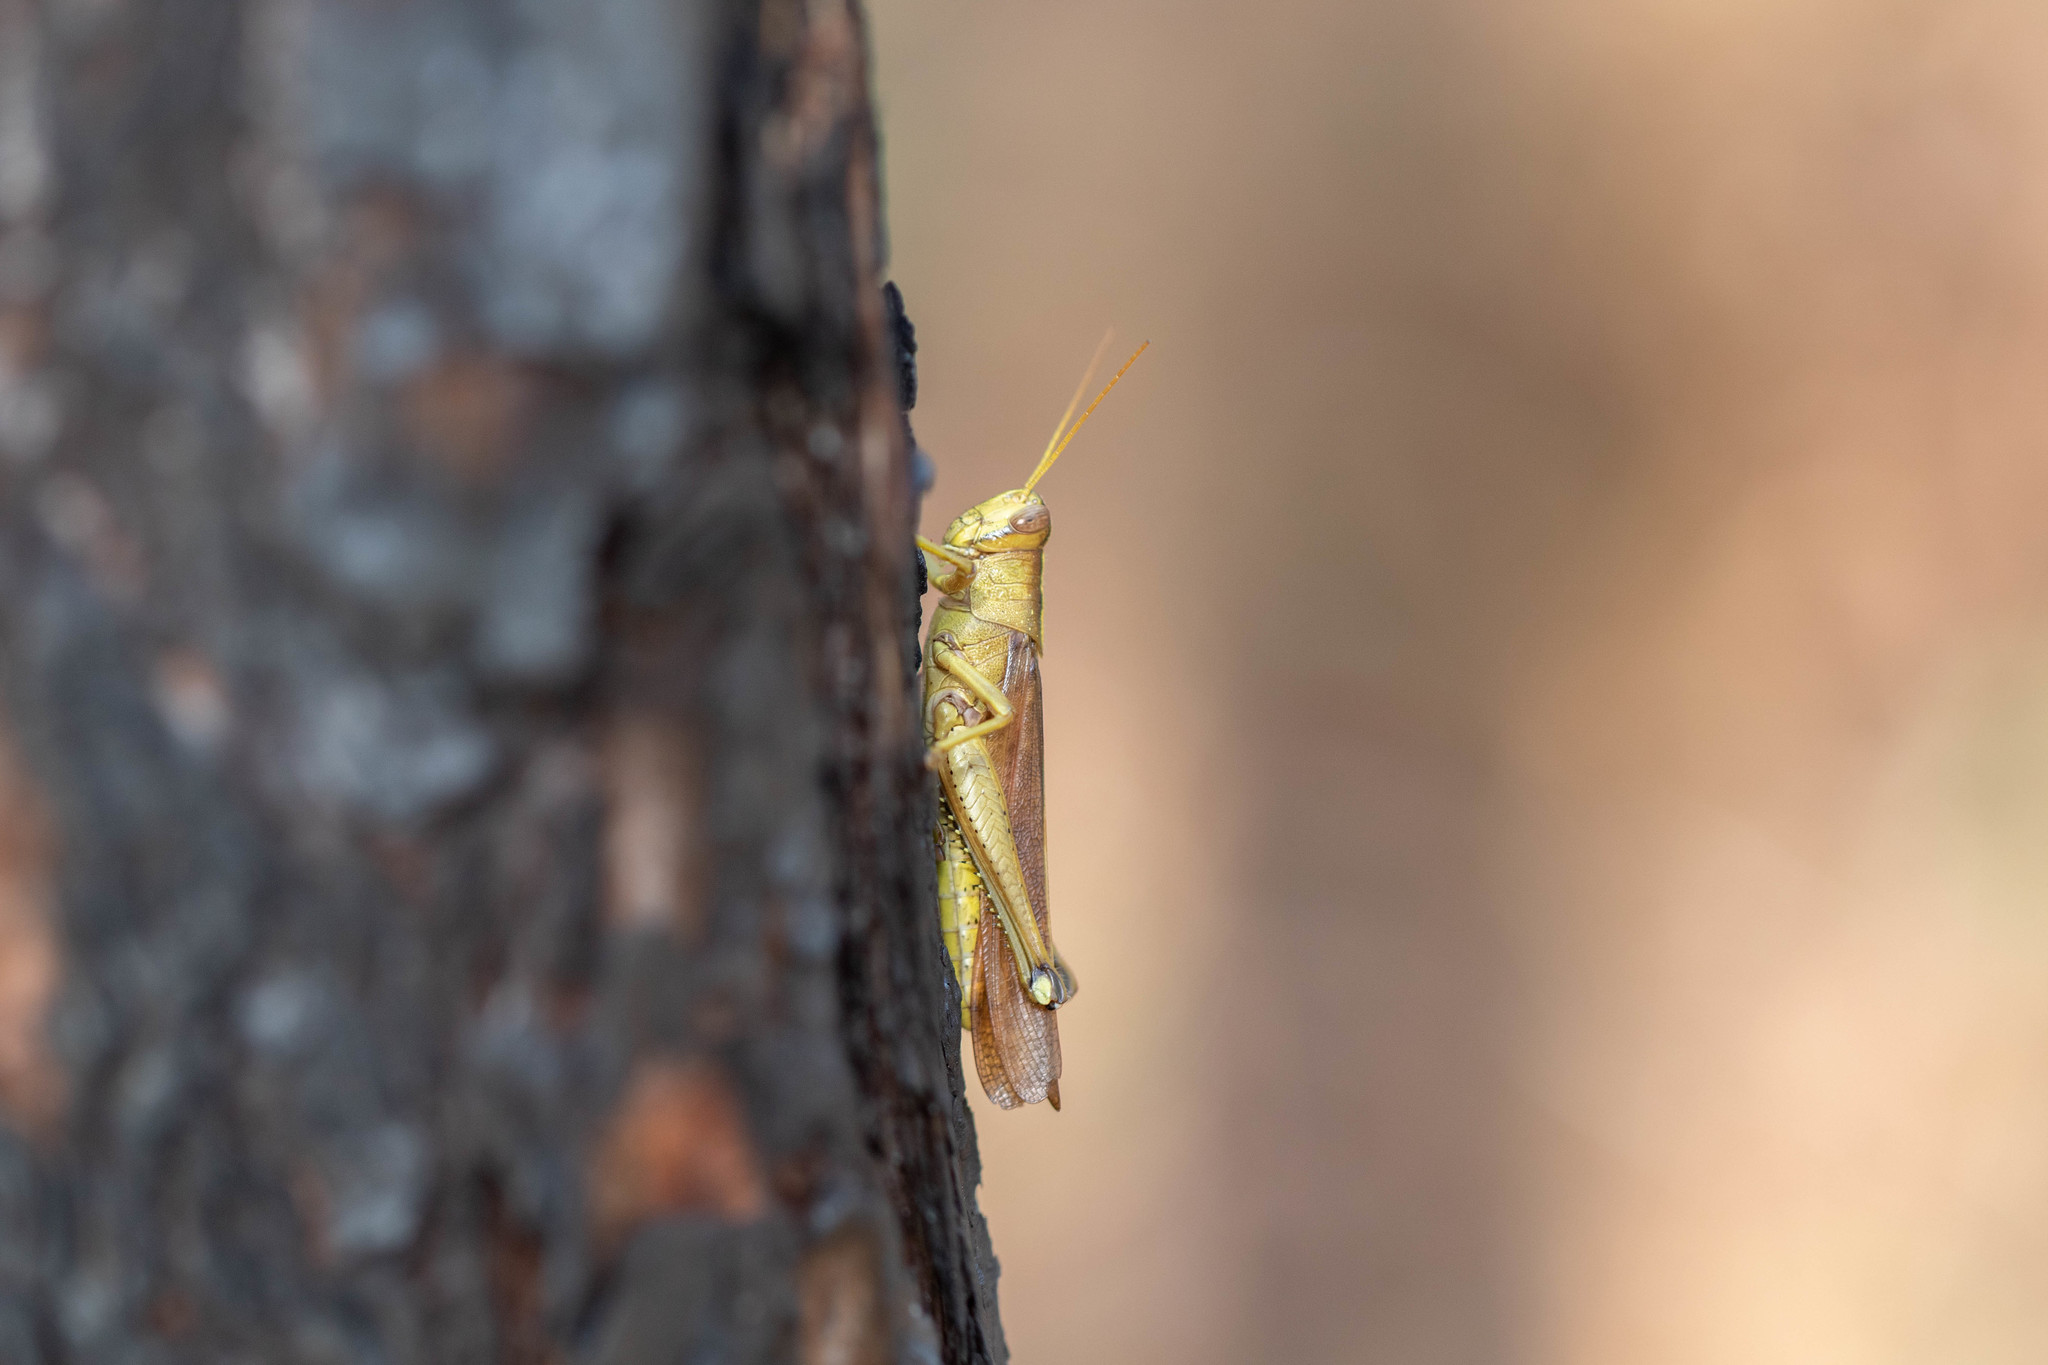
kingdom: Animalia
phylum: Arthropoda
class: Insecta
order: Orthoptera
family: Acrididae
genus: Schistocerca
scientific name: Schistocerca lineata
